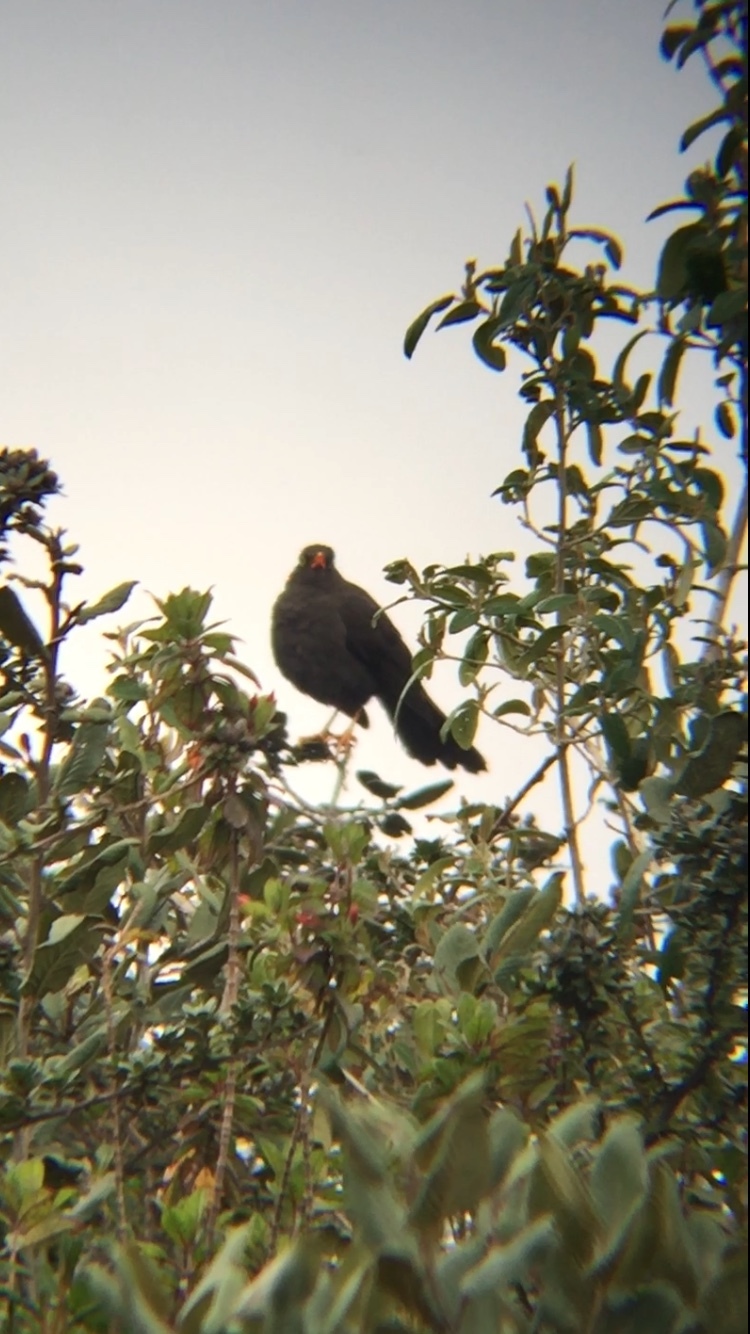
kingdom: Animalia
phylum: Chordata
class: Aves
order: Passeriformes
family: Turdidae
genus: Turdus
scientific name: Turdus fuscater
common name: Great thrush
